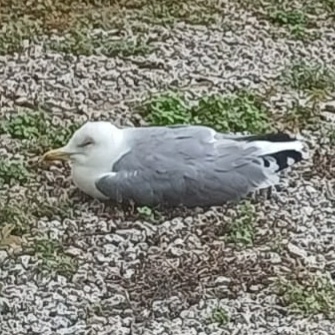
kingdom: Animalia
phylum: Chordata
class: Aves
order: Charadriiformes
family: Laridae
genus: Larus
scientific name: Larus michahellis
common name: Yellow-legged gull
